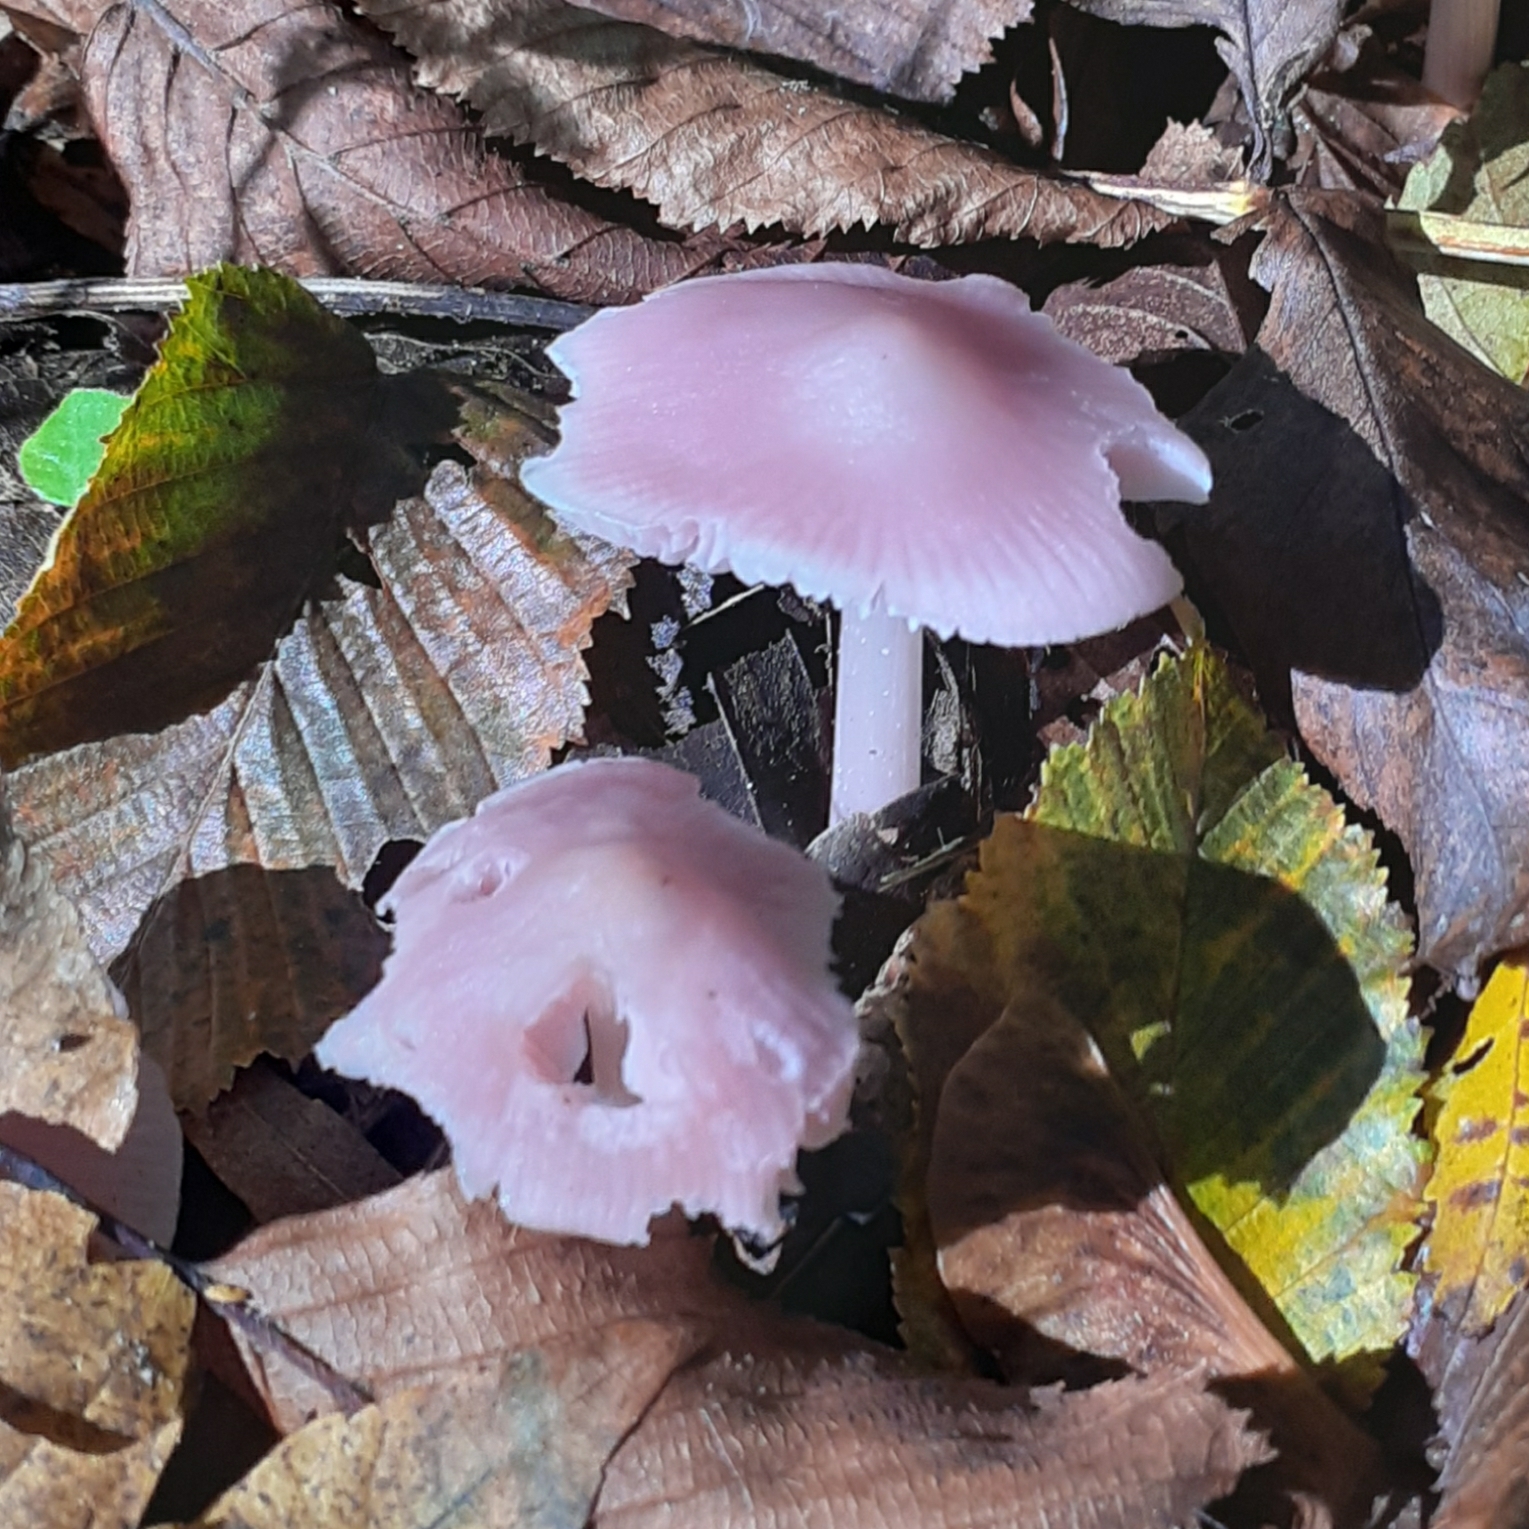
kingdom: Fungi
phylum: Basidiomycota
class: Agaricomycetes
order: Agaricales
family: Mycenaceae
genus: Mycena
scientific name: Mycena rosea
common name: Rosy bonnet
